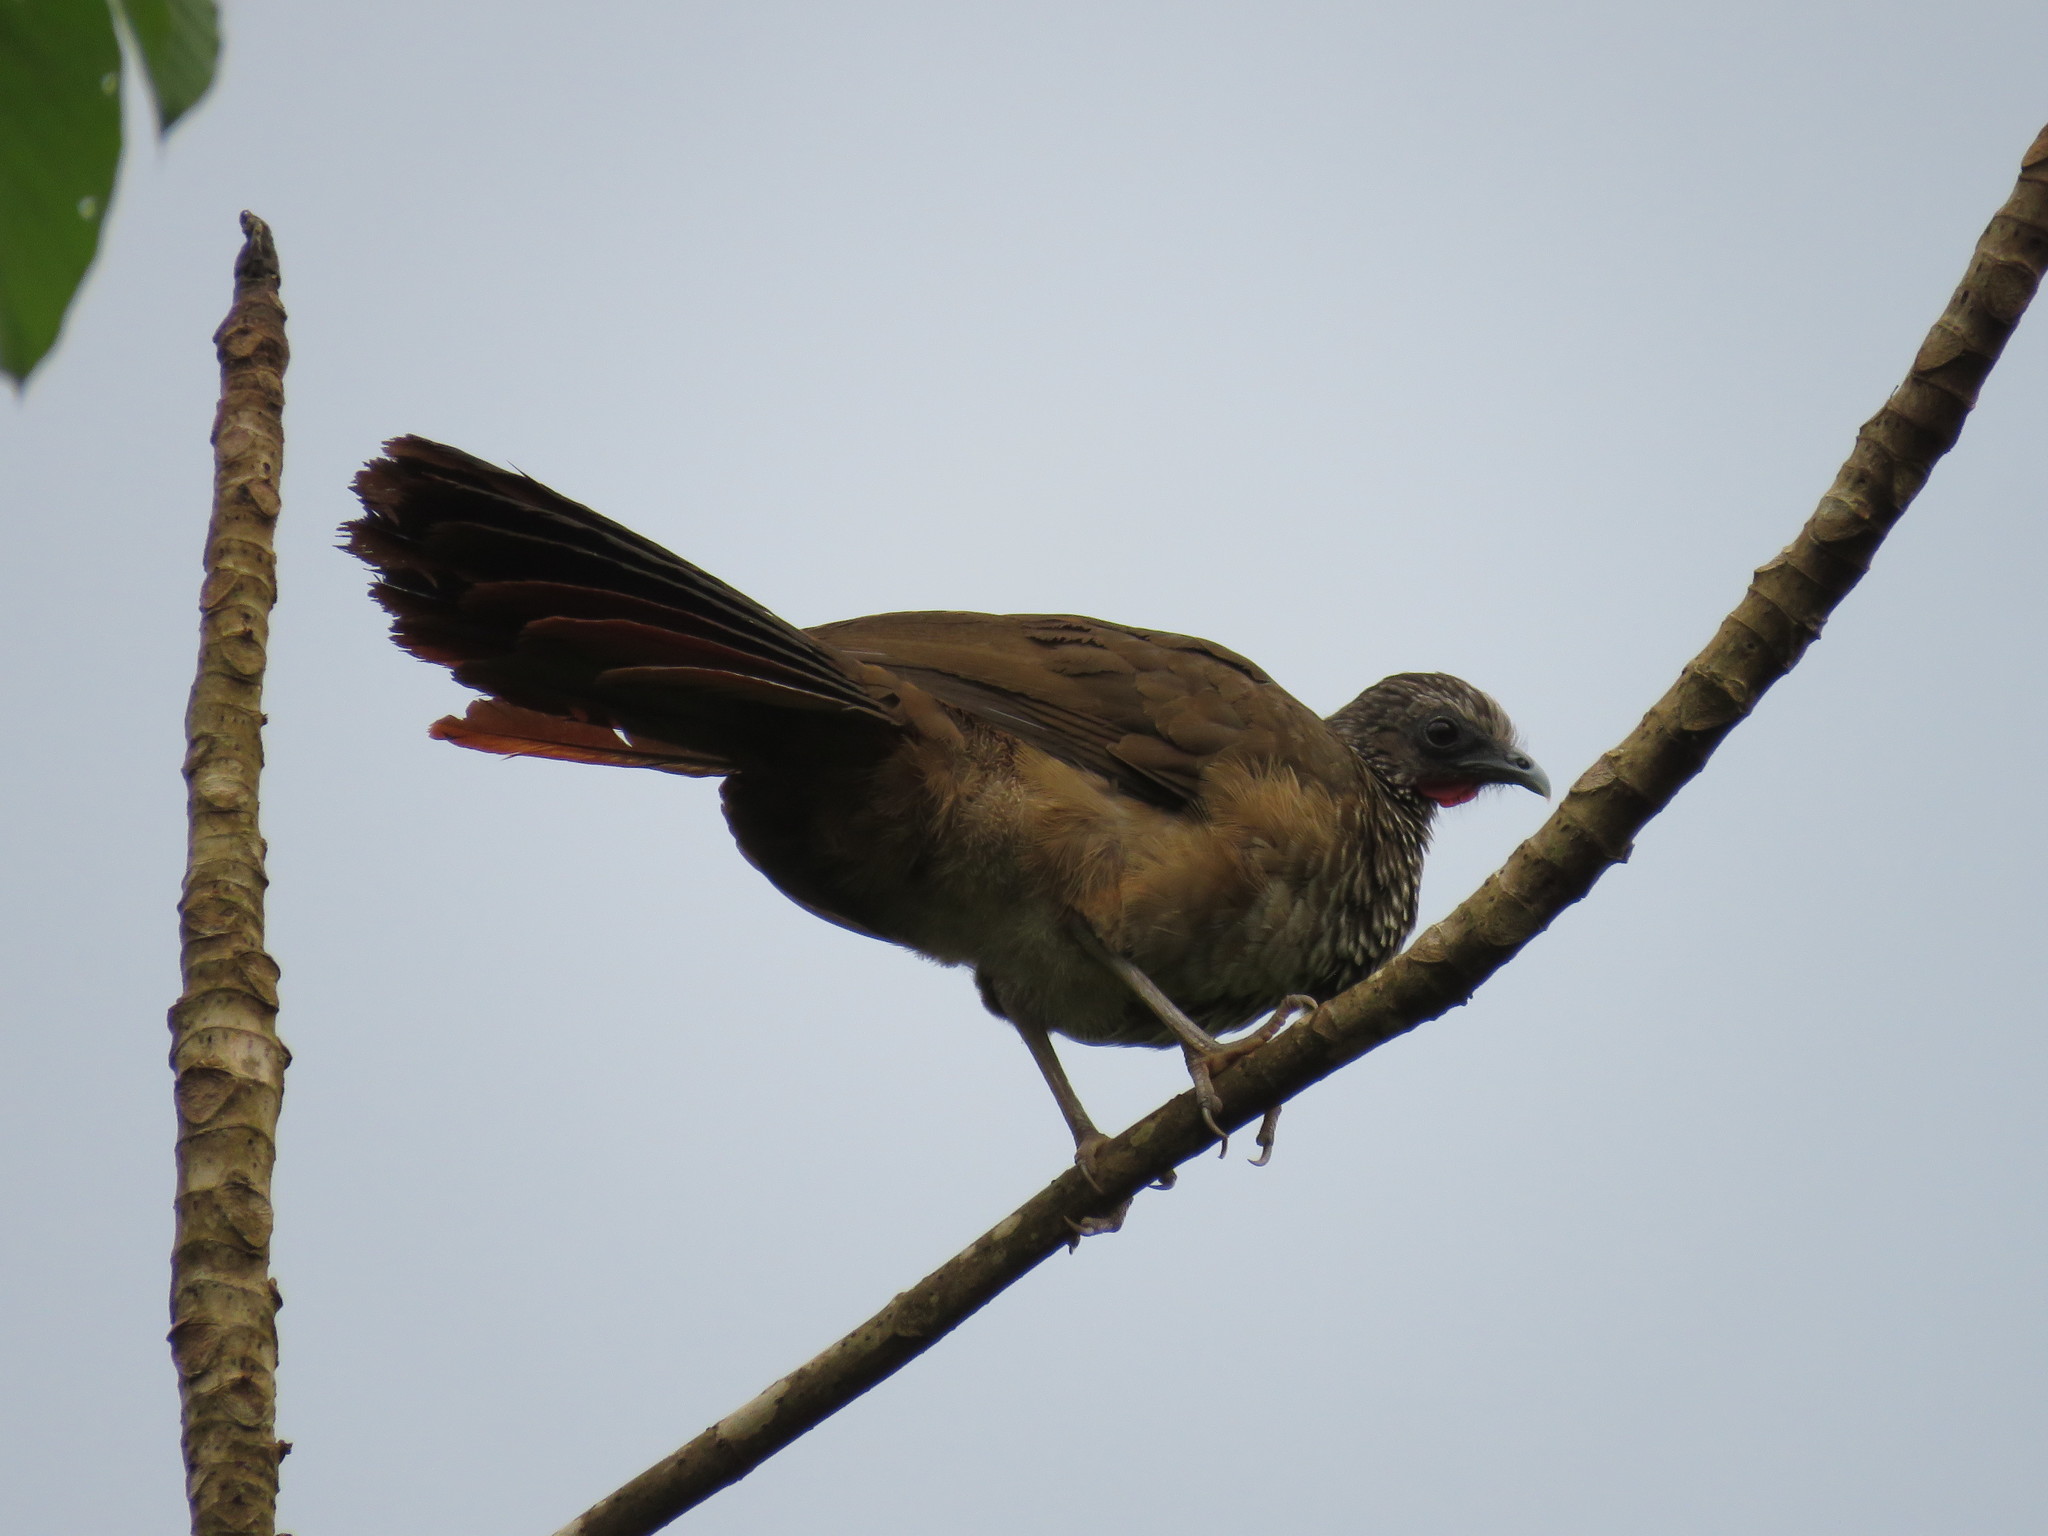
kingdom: Animalia
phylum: Chordata
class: Aves
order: Galliformes
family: Cracidae
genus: Ortalis
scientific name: Ortalis guttata
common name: Speckled chachalaca
